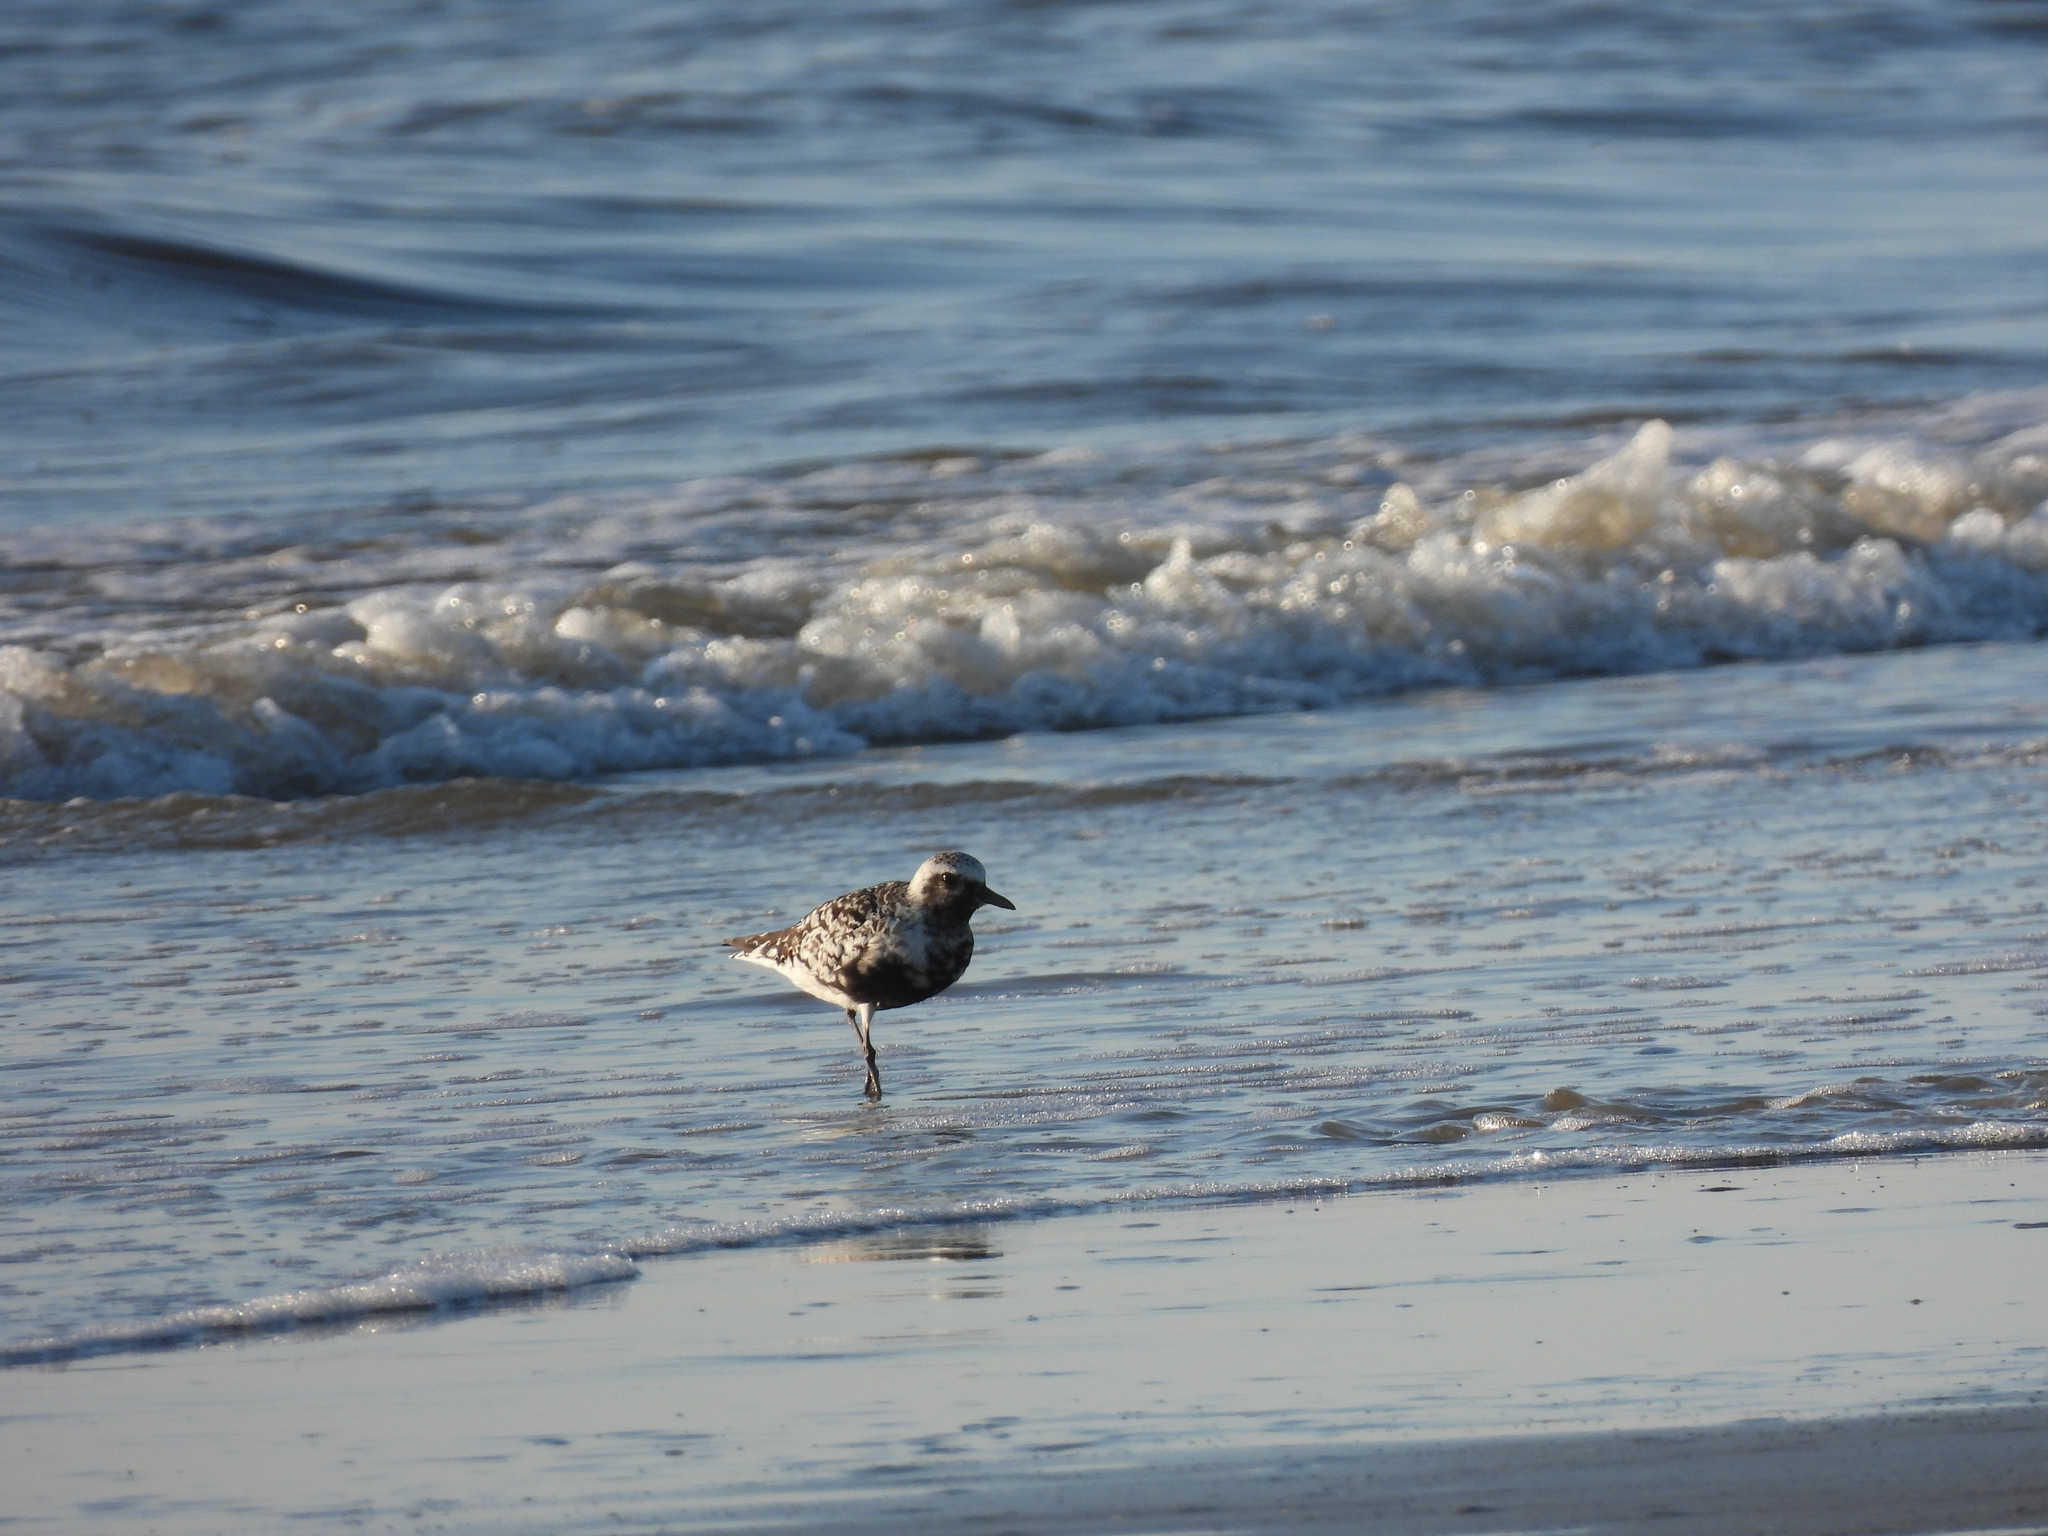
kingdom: Animalia
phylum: Chordata
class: Aves
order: Charadriiformes
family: Charadriidae
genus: Pluvialis
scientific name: Pluvialis squatarola
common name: Grey plover
